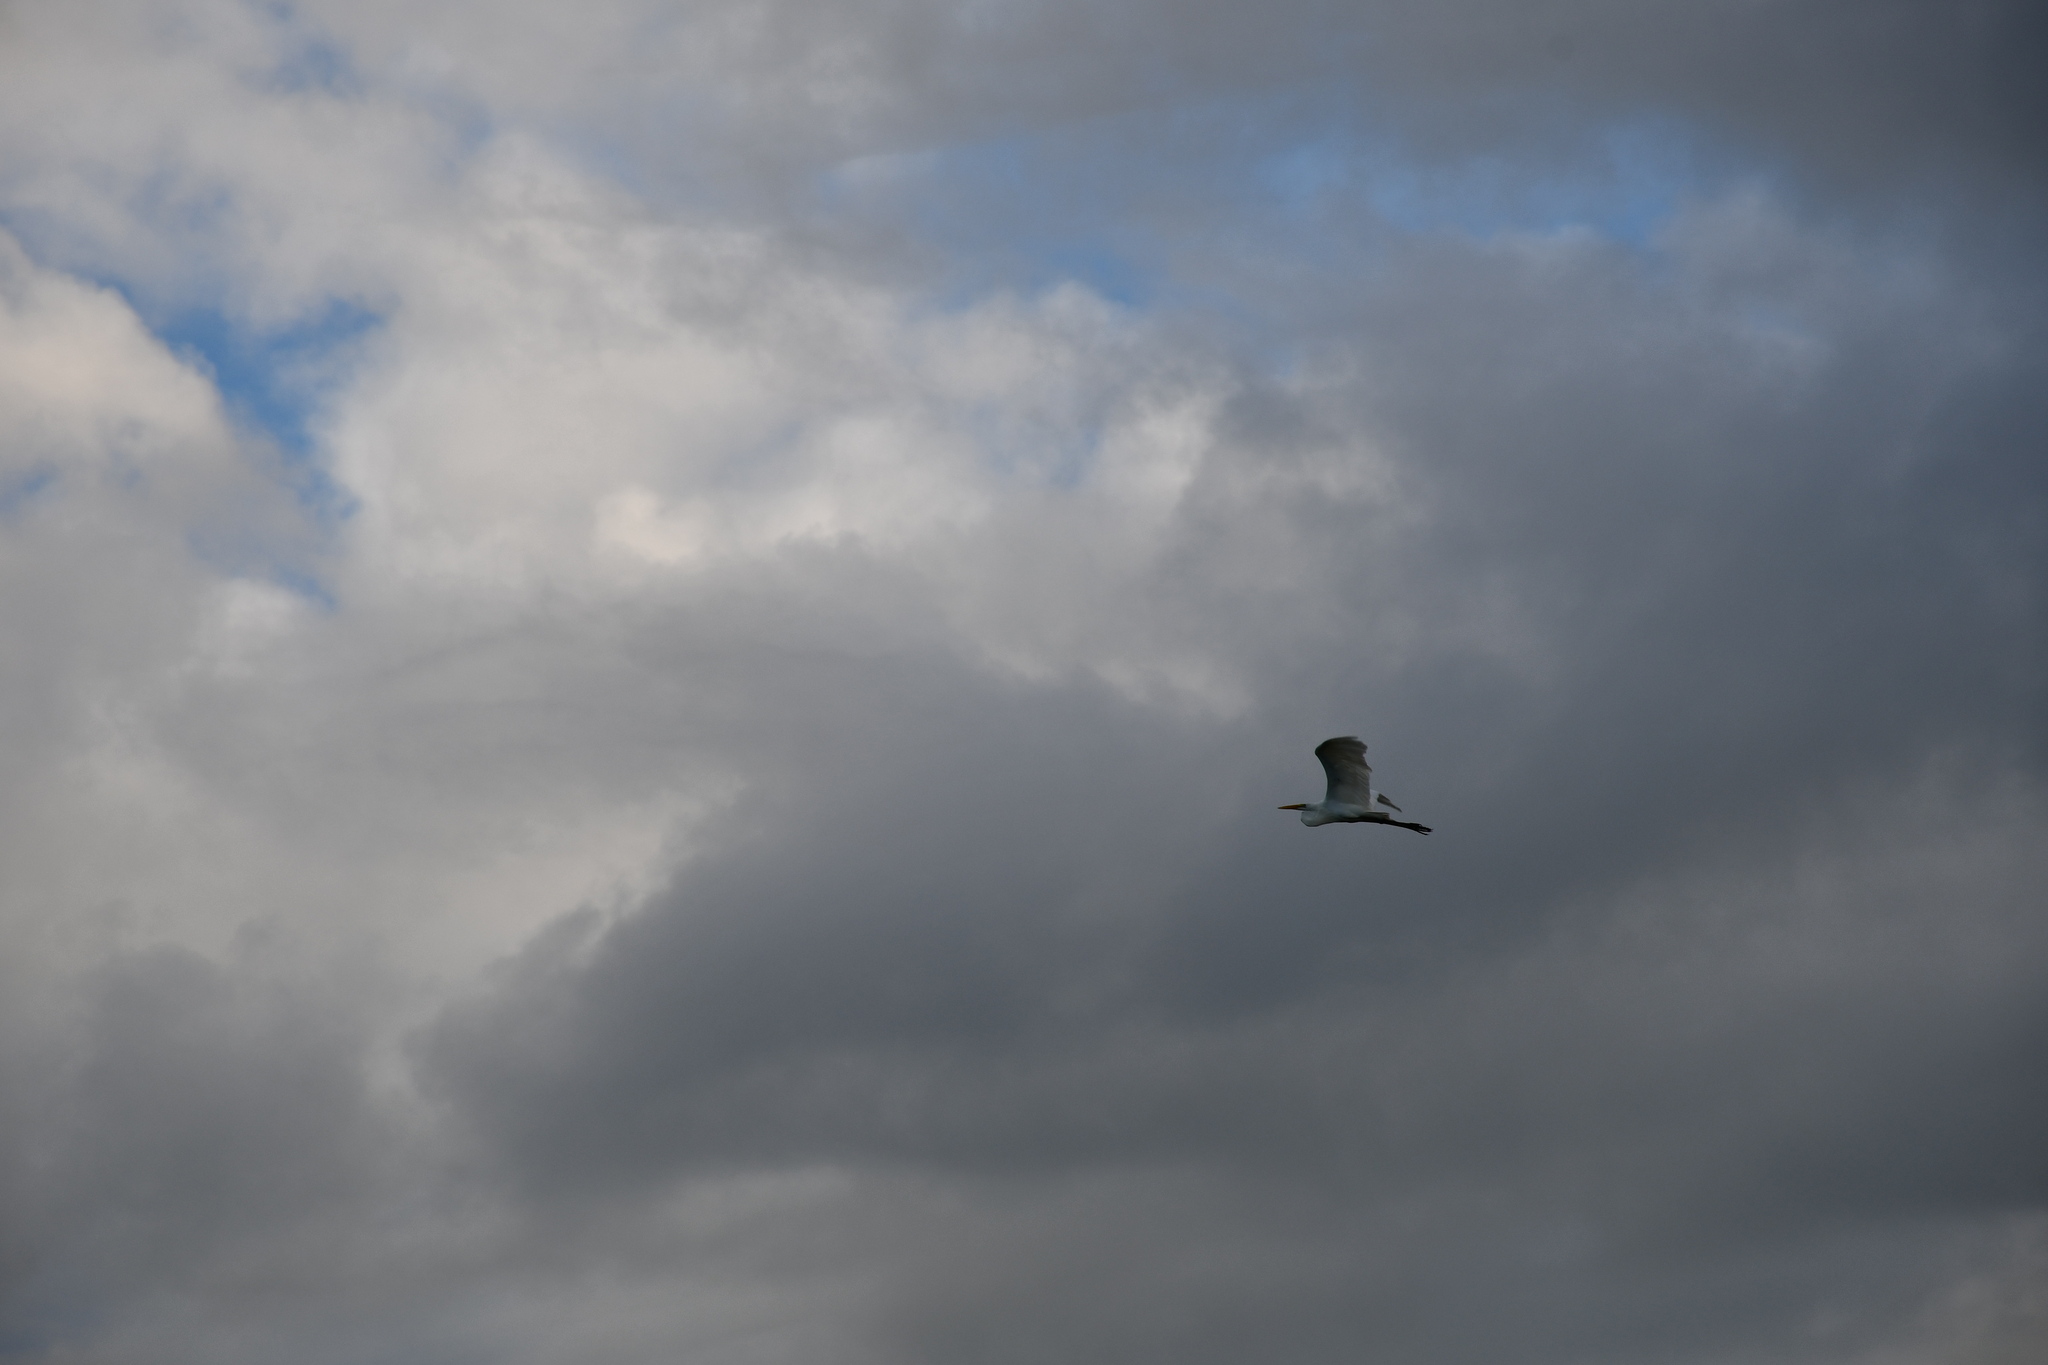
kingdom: Animalia
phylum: Chordata
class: Aves
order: Pelecaniformes
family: Ardeidae
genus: Ardea
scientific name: Ardea alba
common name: Great egret
